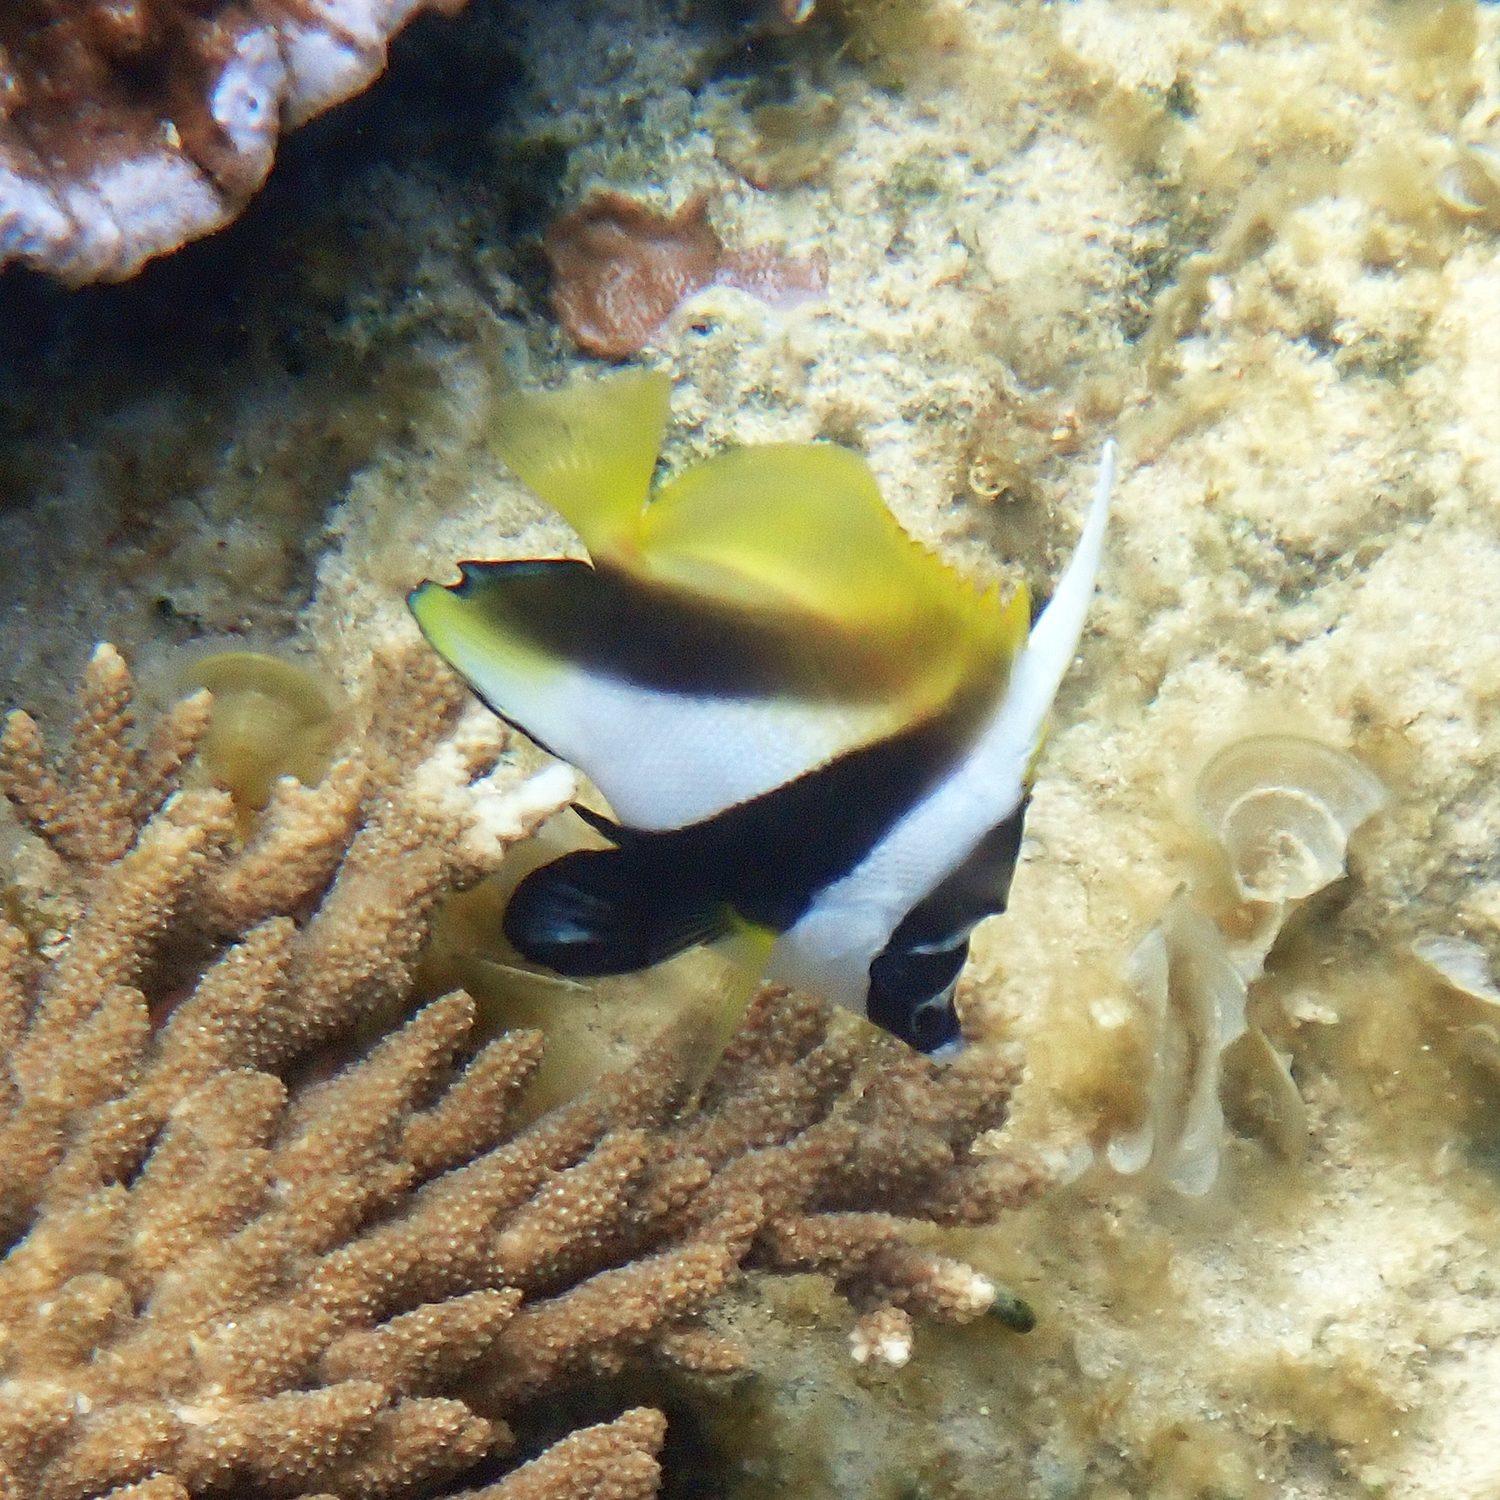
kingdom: Animalia
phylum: Chordata
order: Perciformes
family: Chaetodontidae
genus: Heniochus
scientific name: Heniochus monoceros
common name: Masked bannerfish
